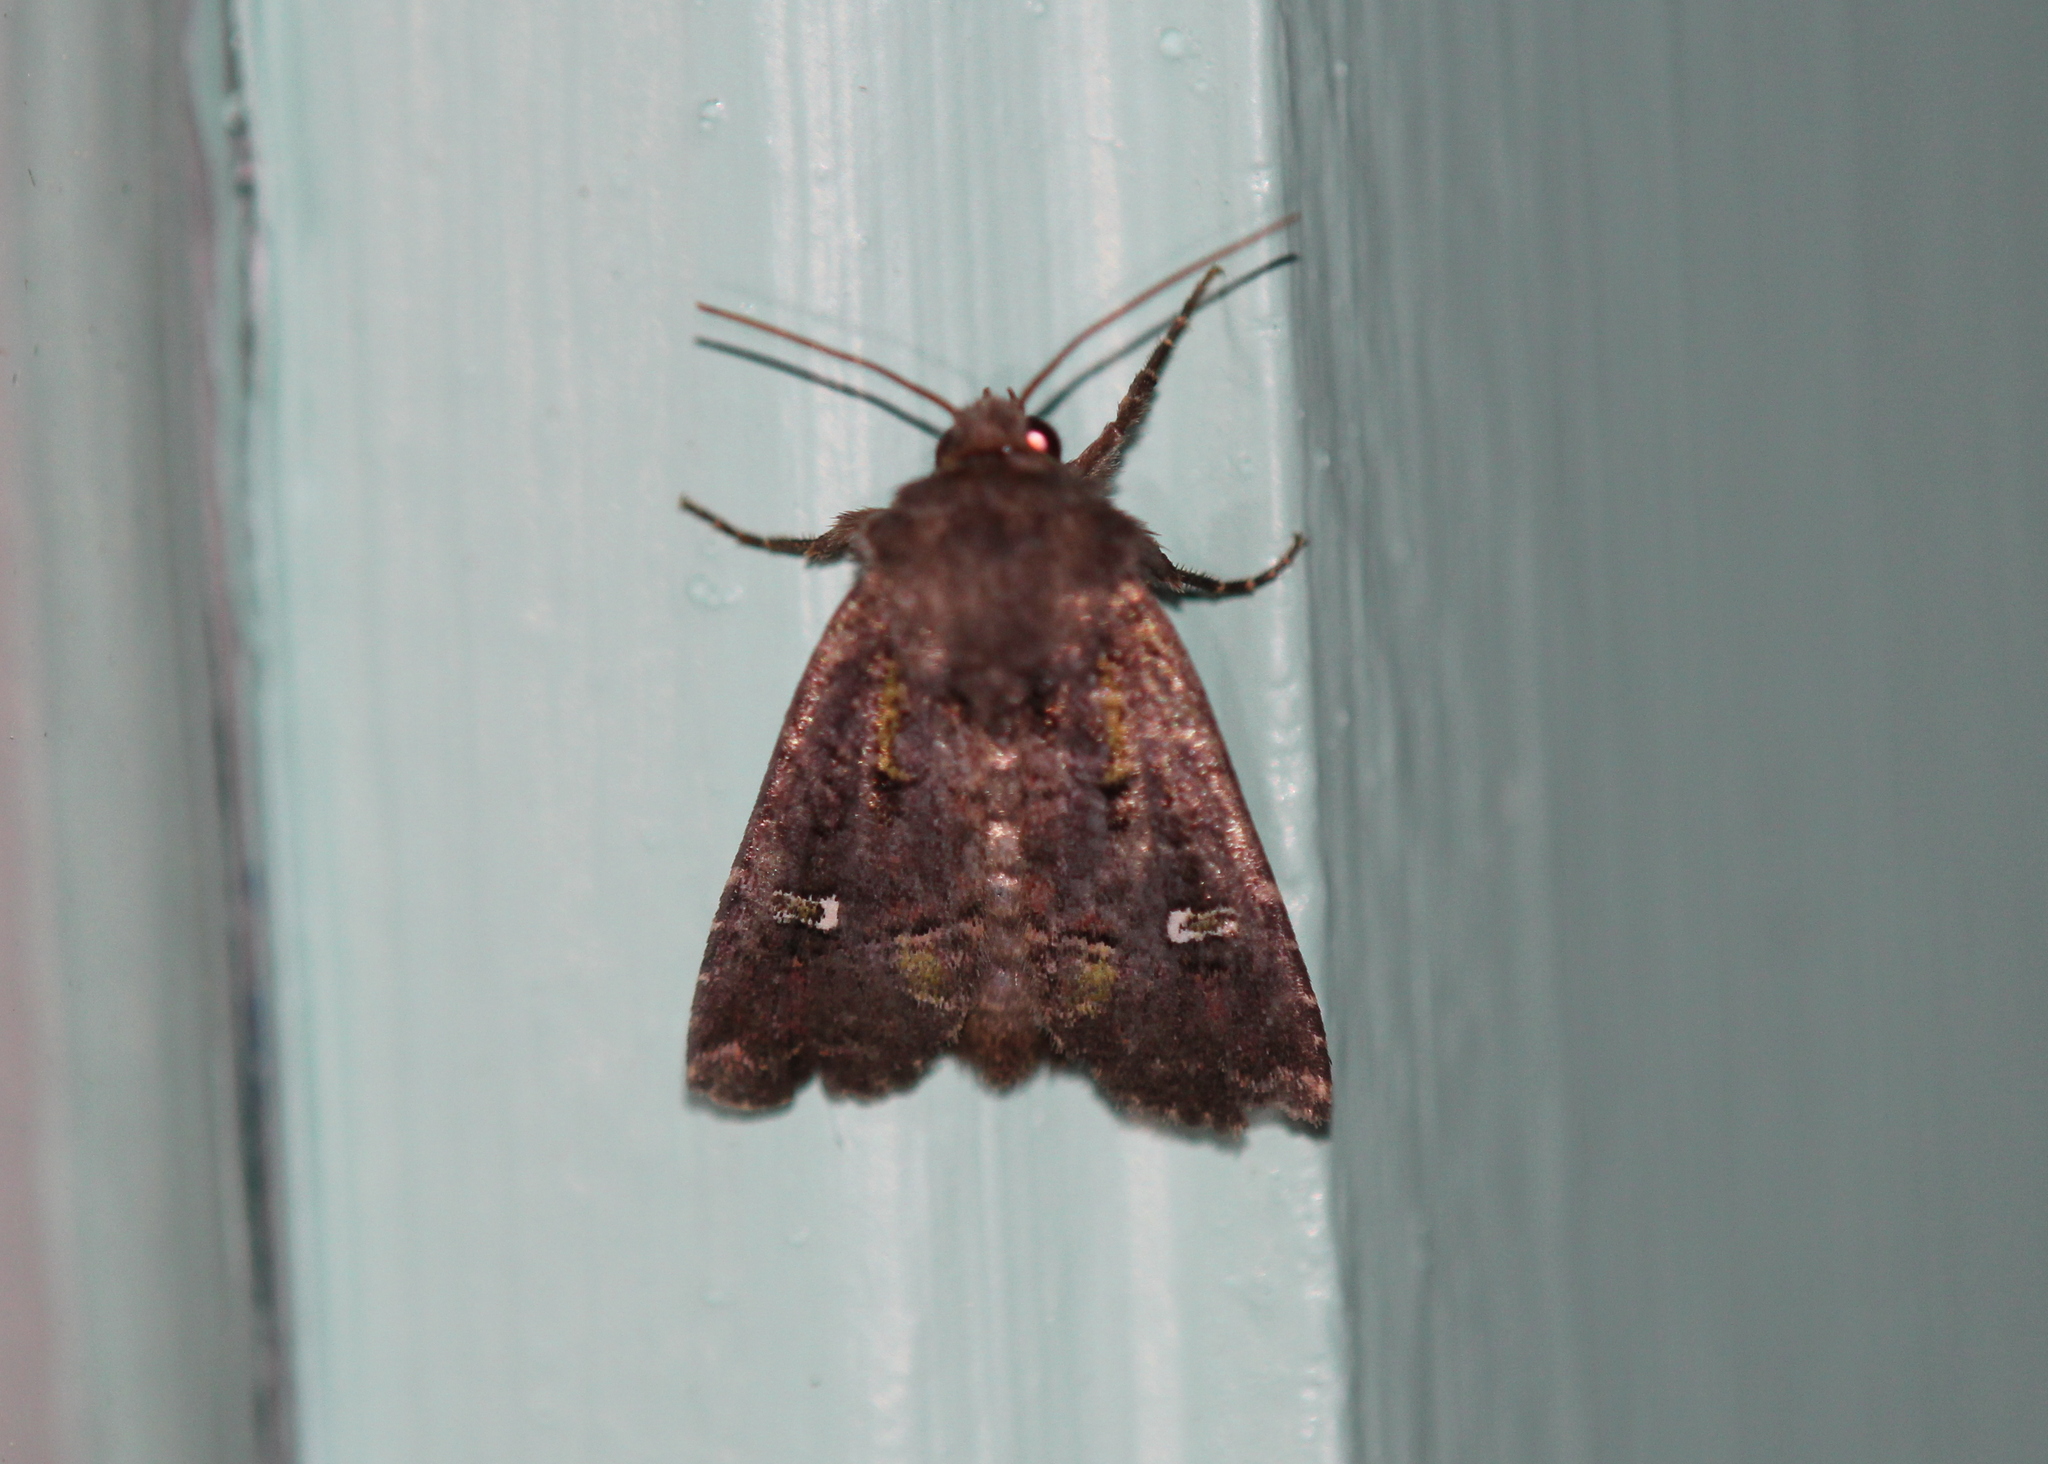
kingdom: Animalia
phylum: Arthropoda
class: Insecta
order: Lepidoptera
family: Noctuidae
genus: Lacinipolia
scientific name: Lacinipolia renigera
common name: Kidney-spotted minor
